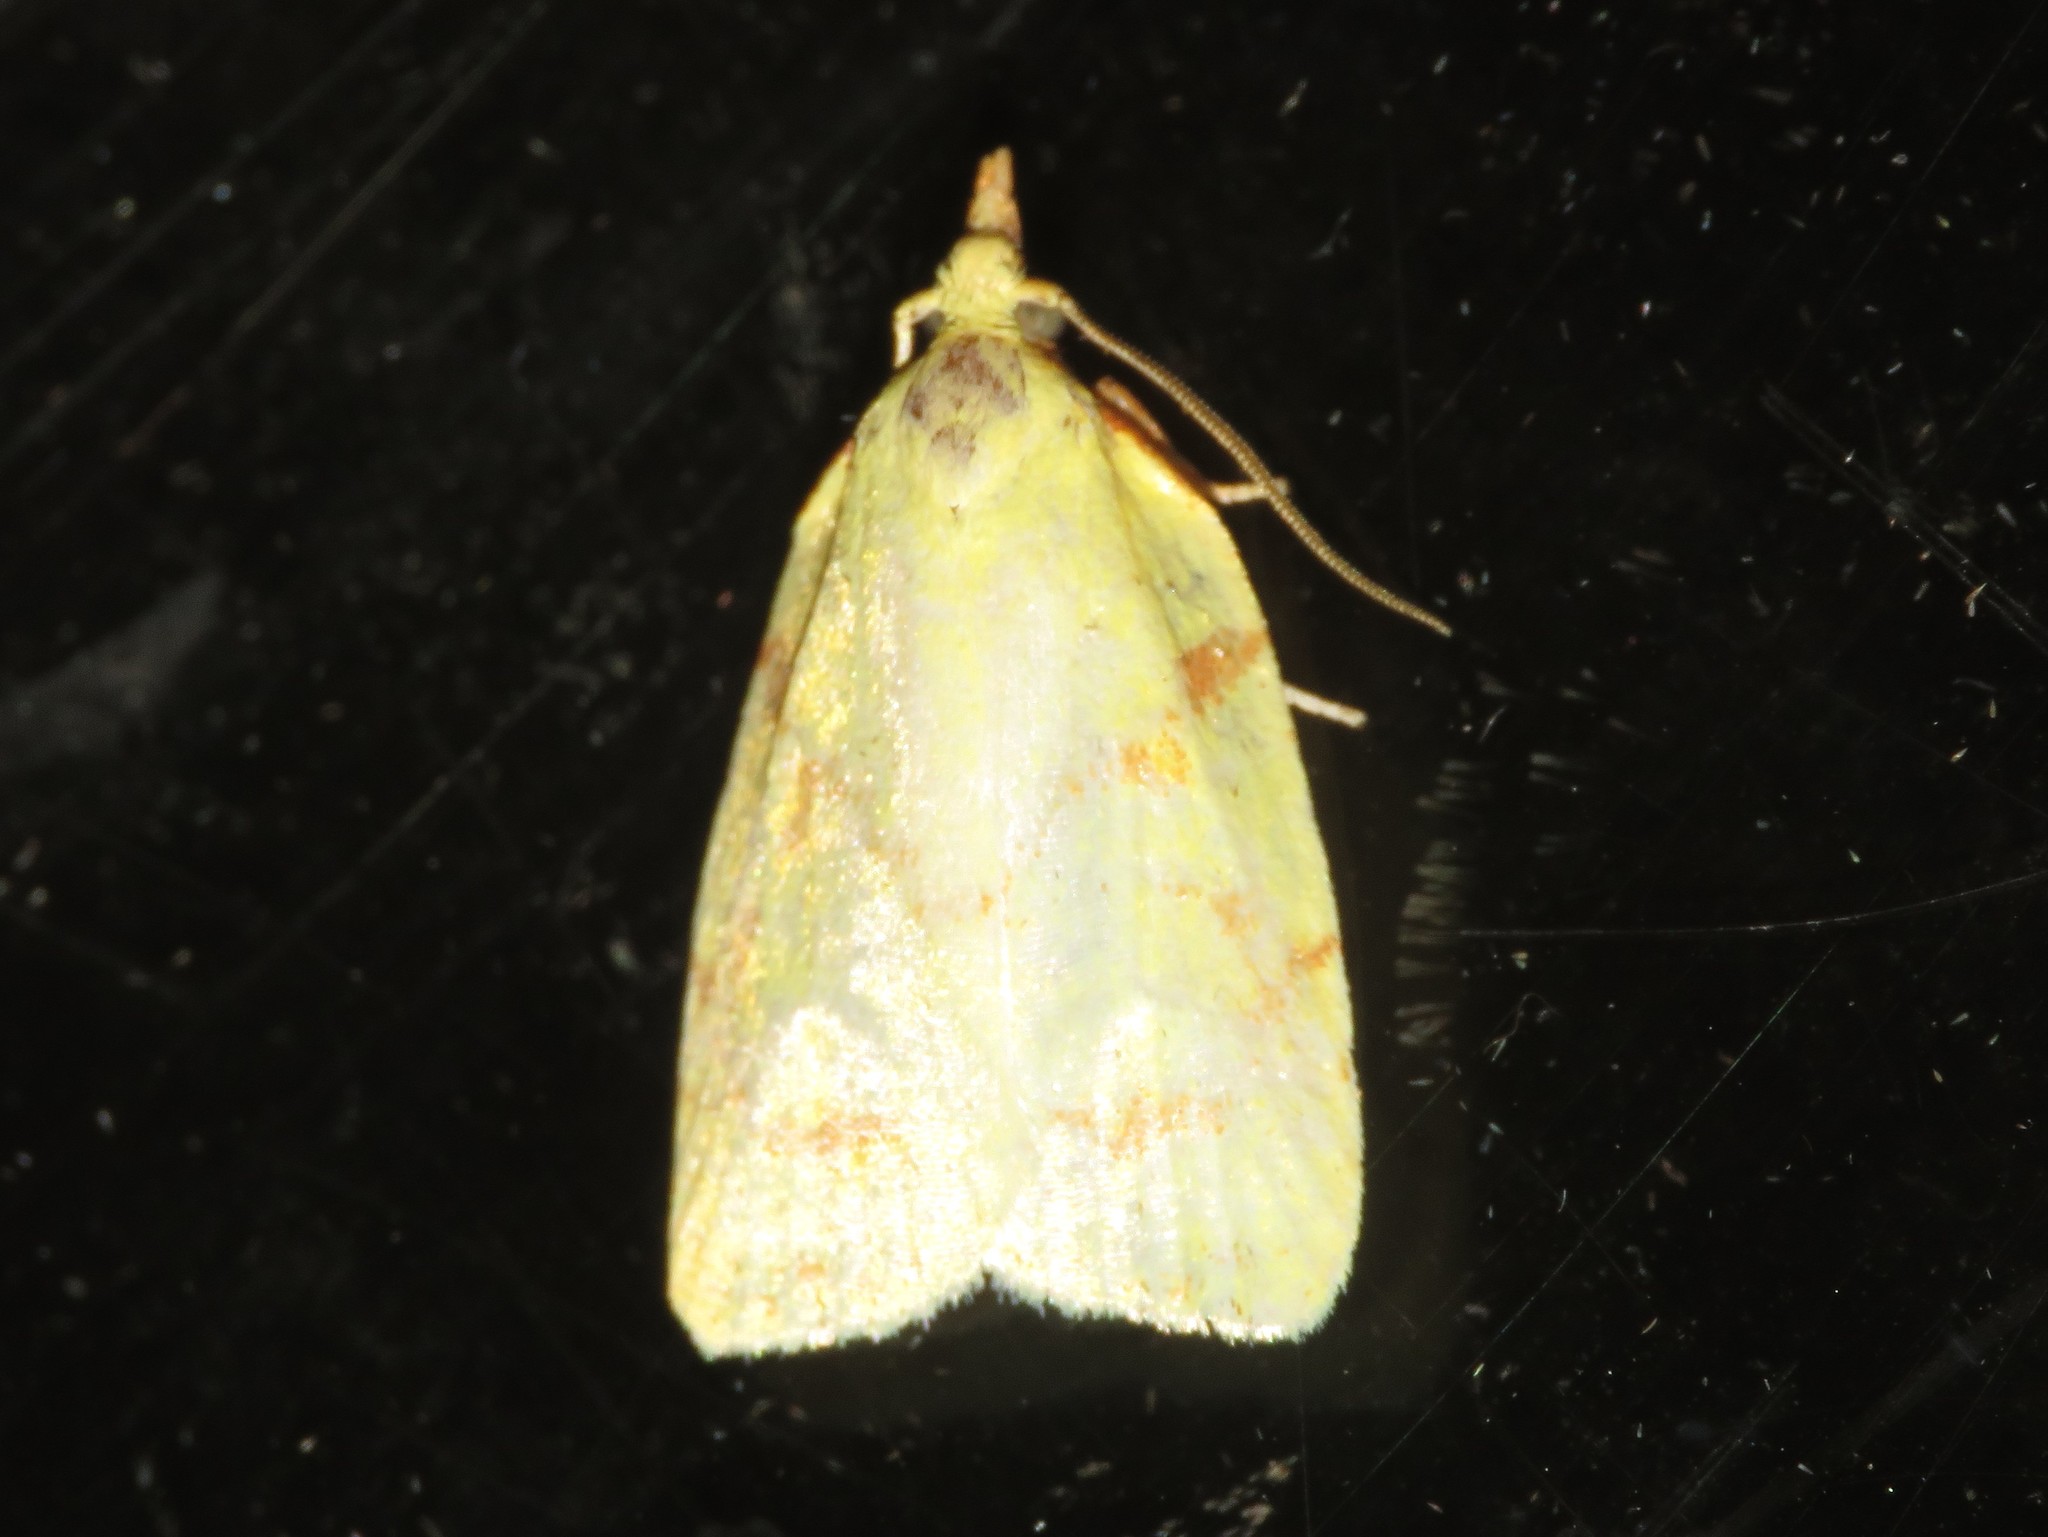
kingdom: Animalia
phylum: Arthropoda
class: Insecta
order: Lepidoptera
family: Tortricidae
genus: Cenopis
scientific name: Cenopis pettitana
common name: Maple-basswood leafroller moth
